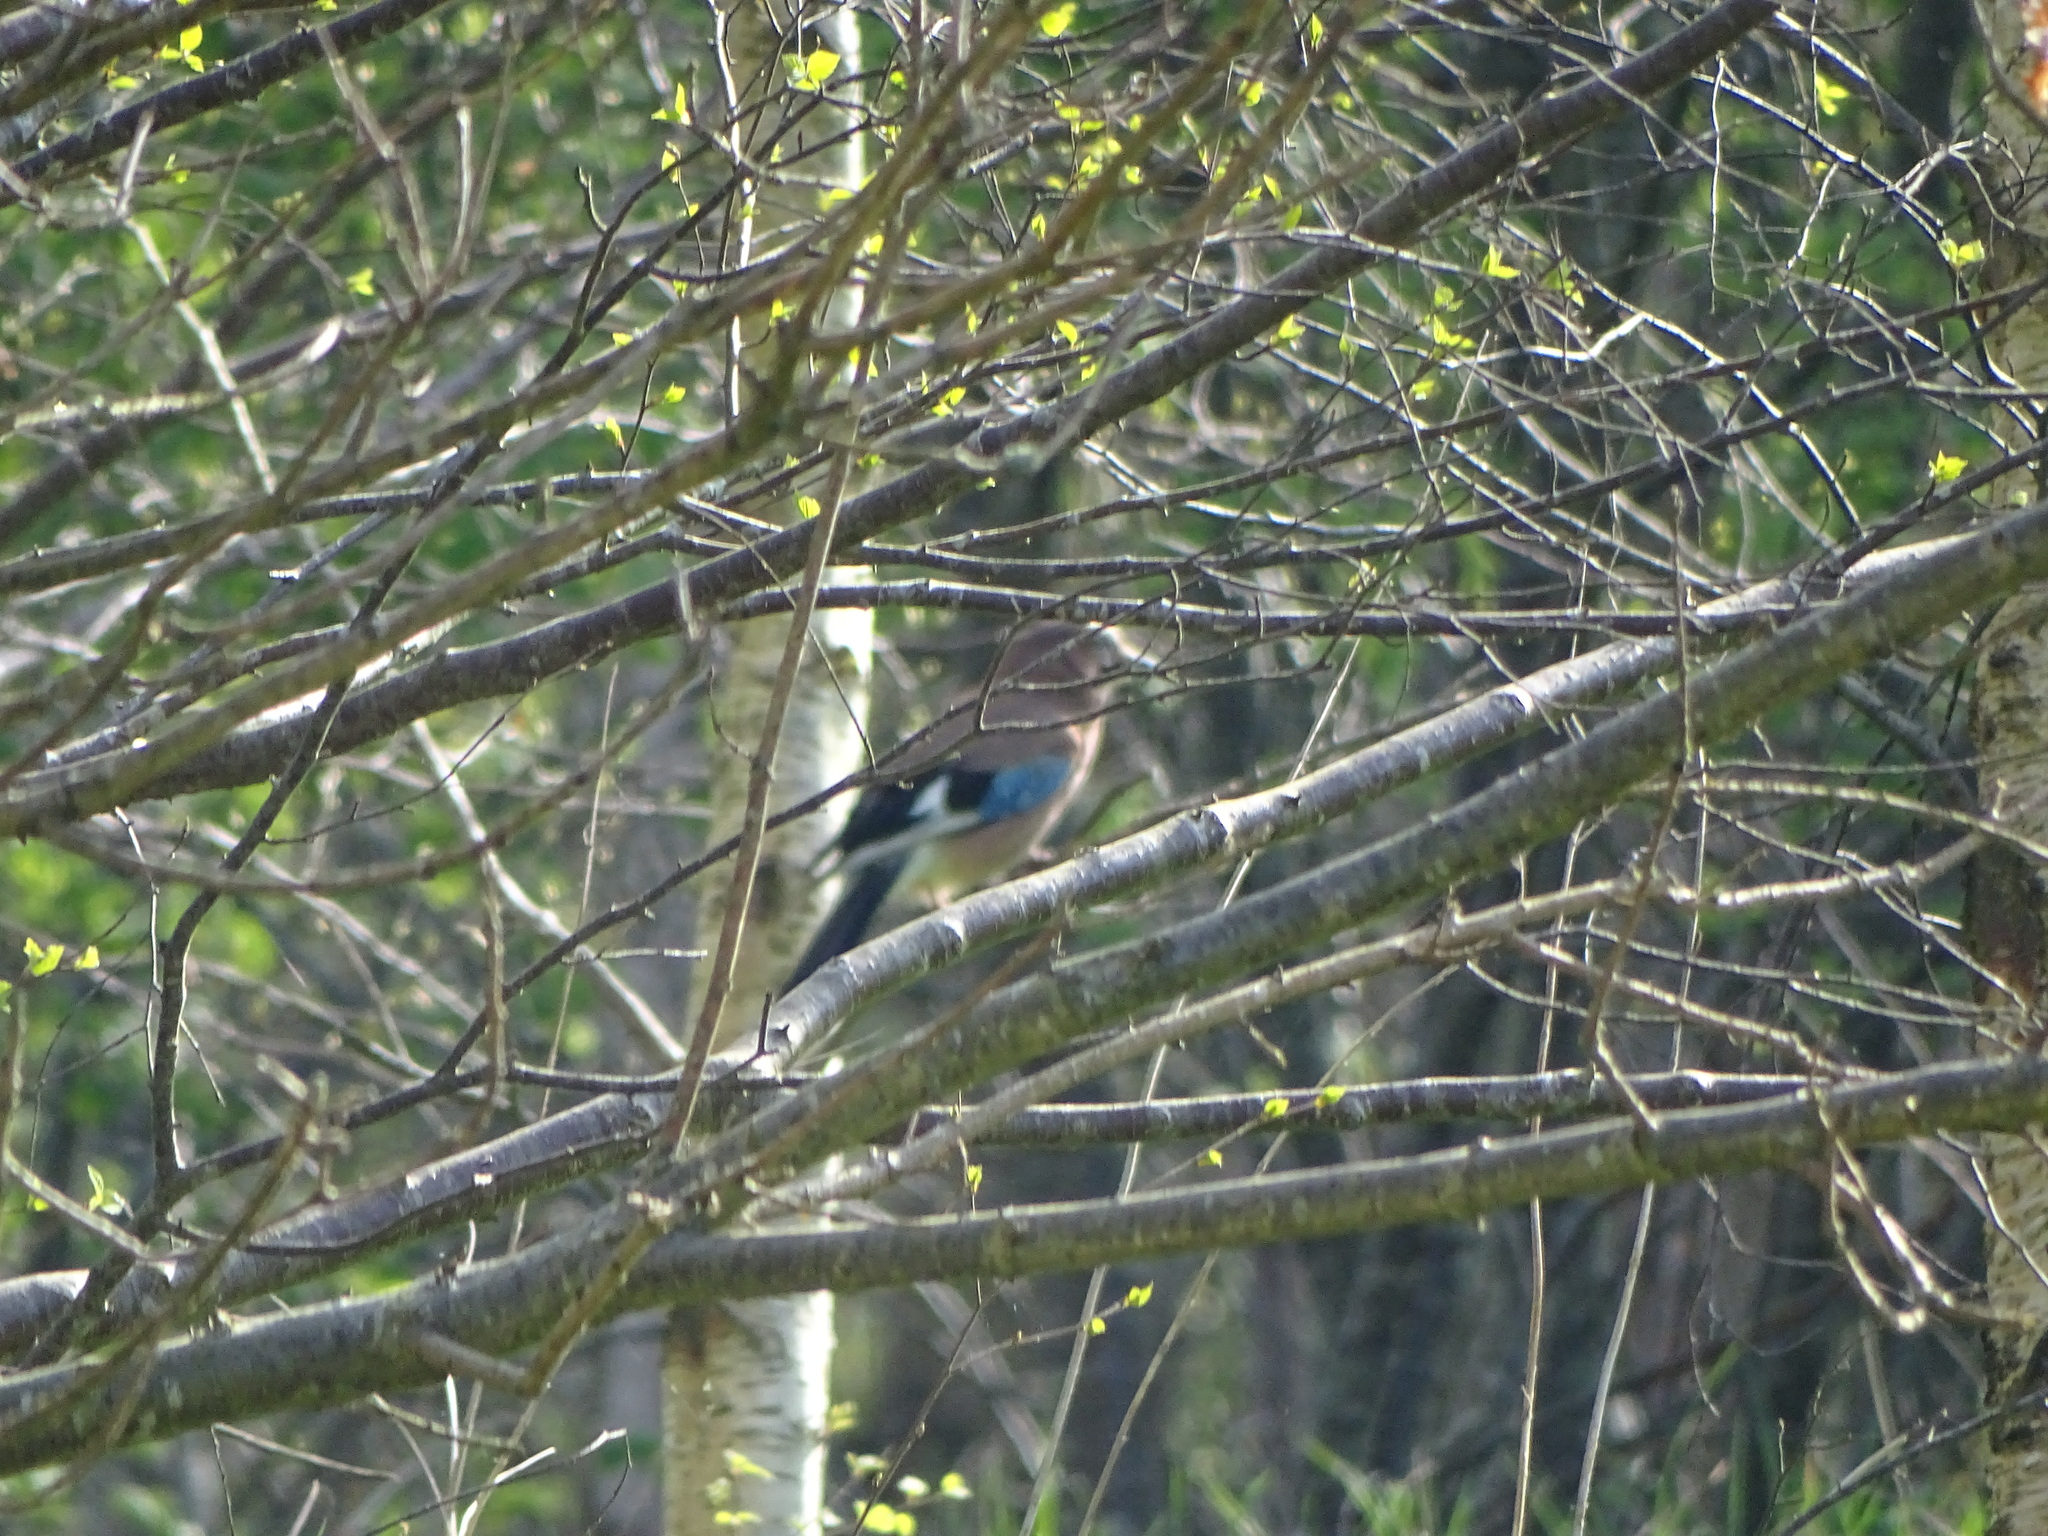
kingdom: Animalia
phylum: Chordata
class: Aves
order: Passeriformes
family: Corvidae
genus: Garrulus
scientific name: Garrulus glandarius
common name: Eurasian jay
